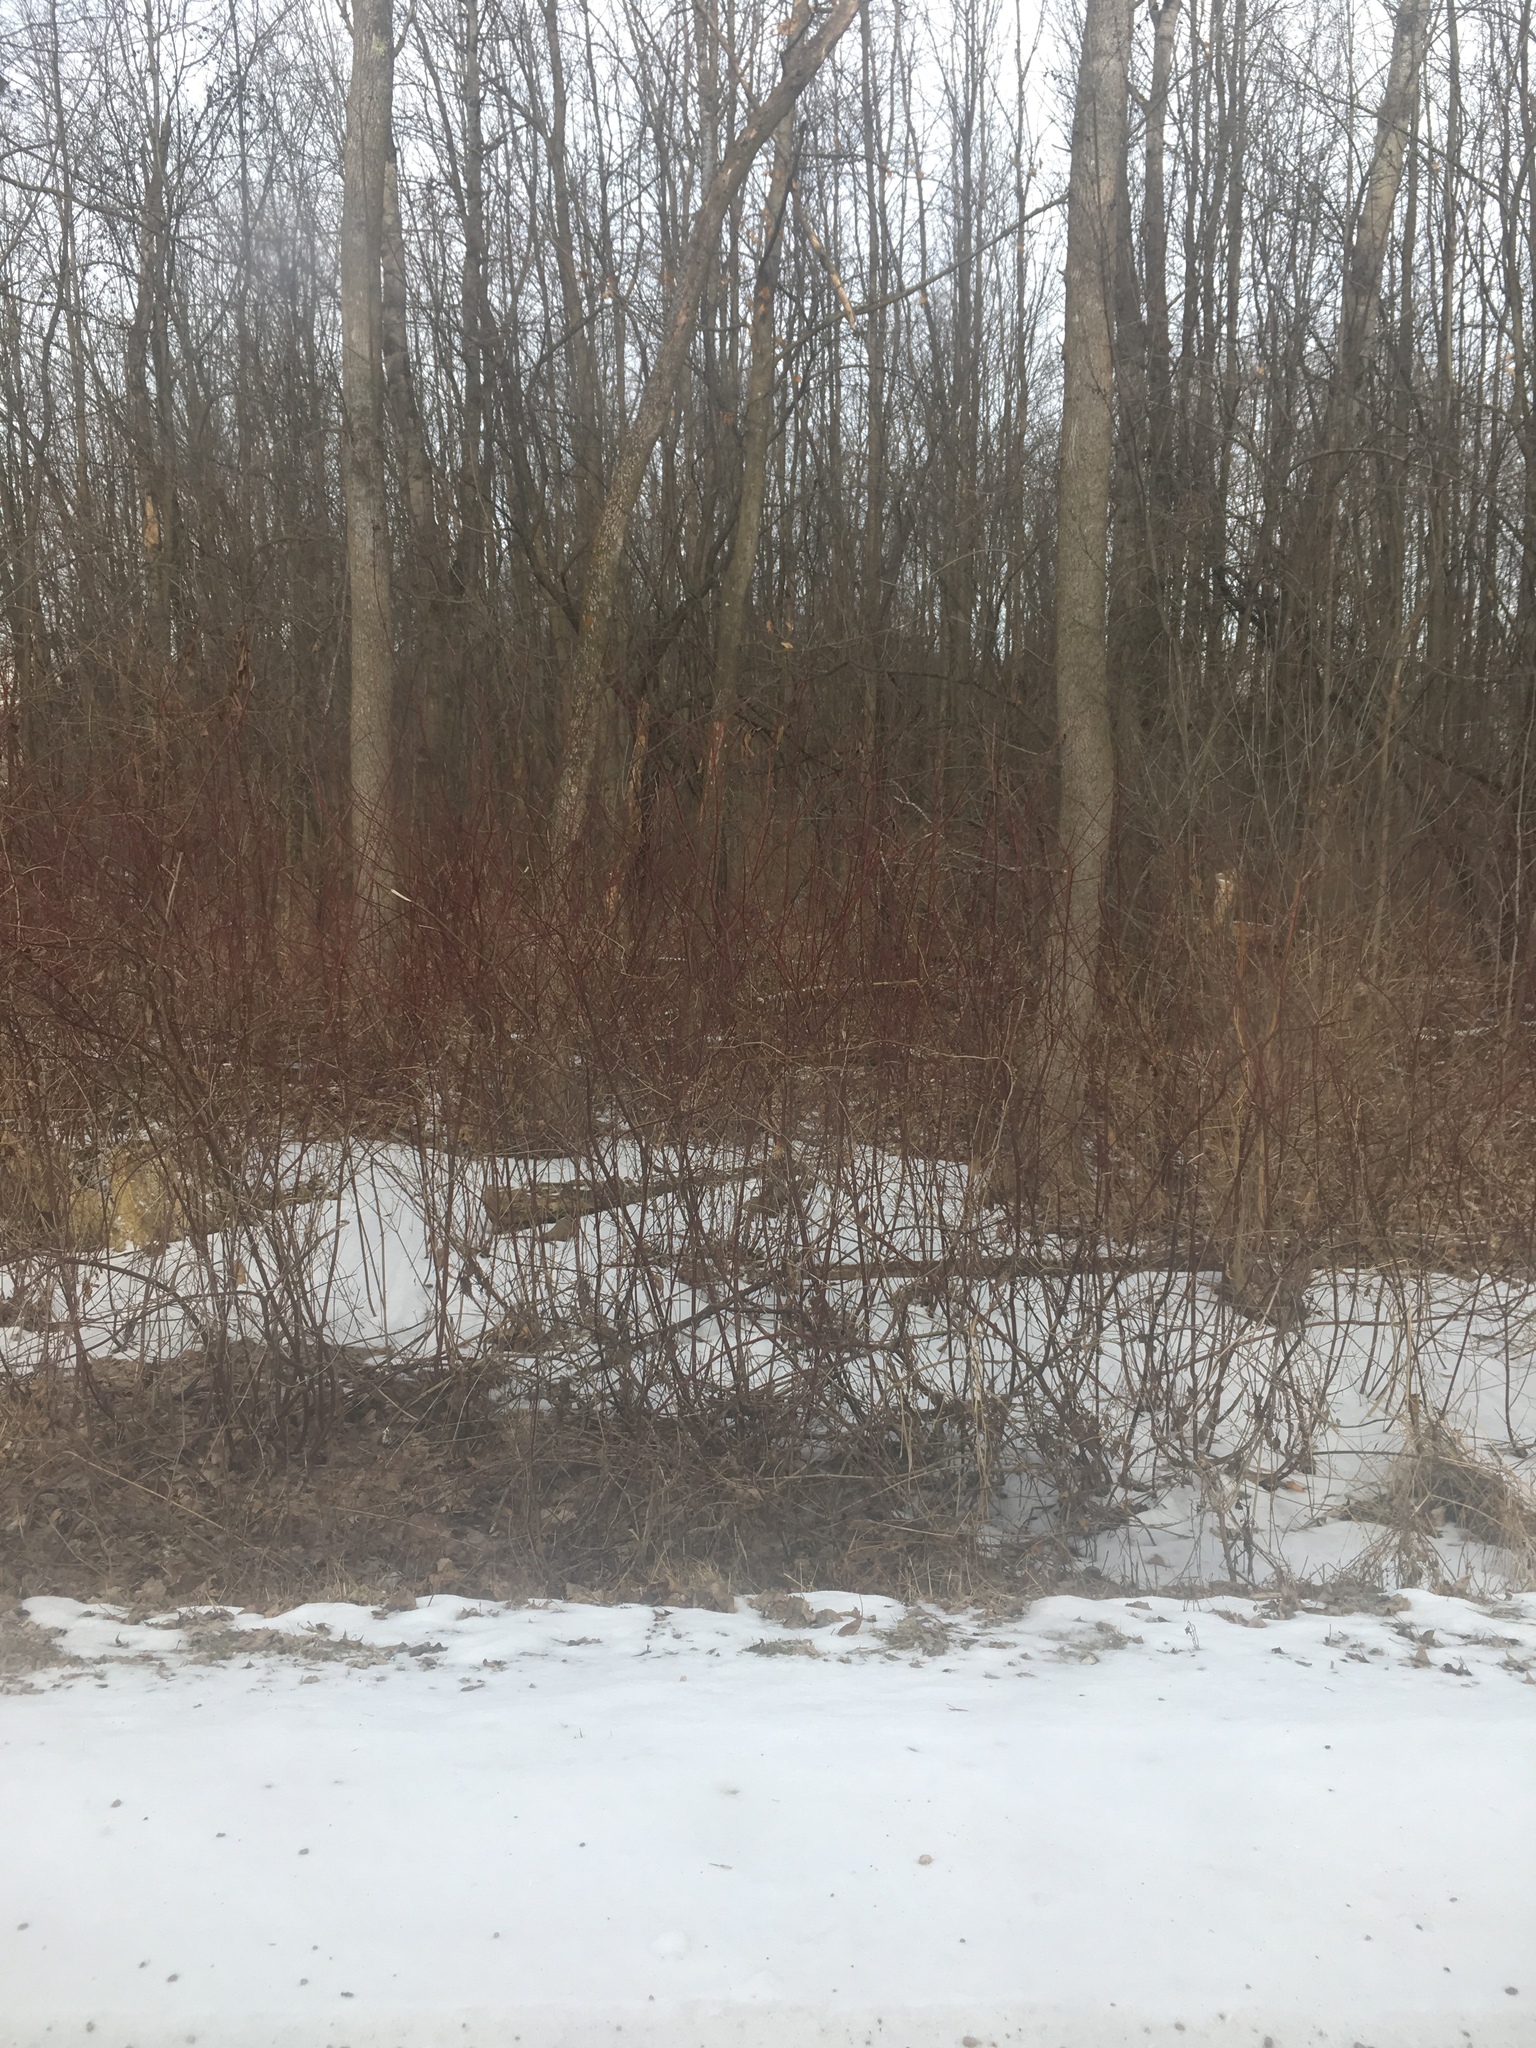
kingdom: Plantae
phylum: Tracheophyta
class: Magnoliopsida
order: Cornales
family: Cornaceae
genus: Cornus
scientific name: Cornus sericea
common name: Red-osier dogwood
